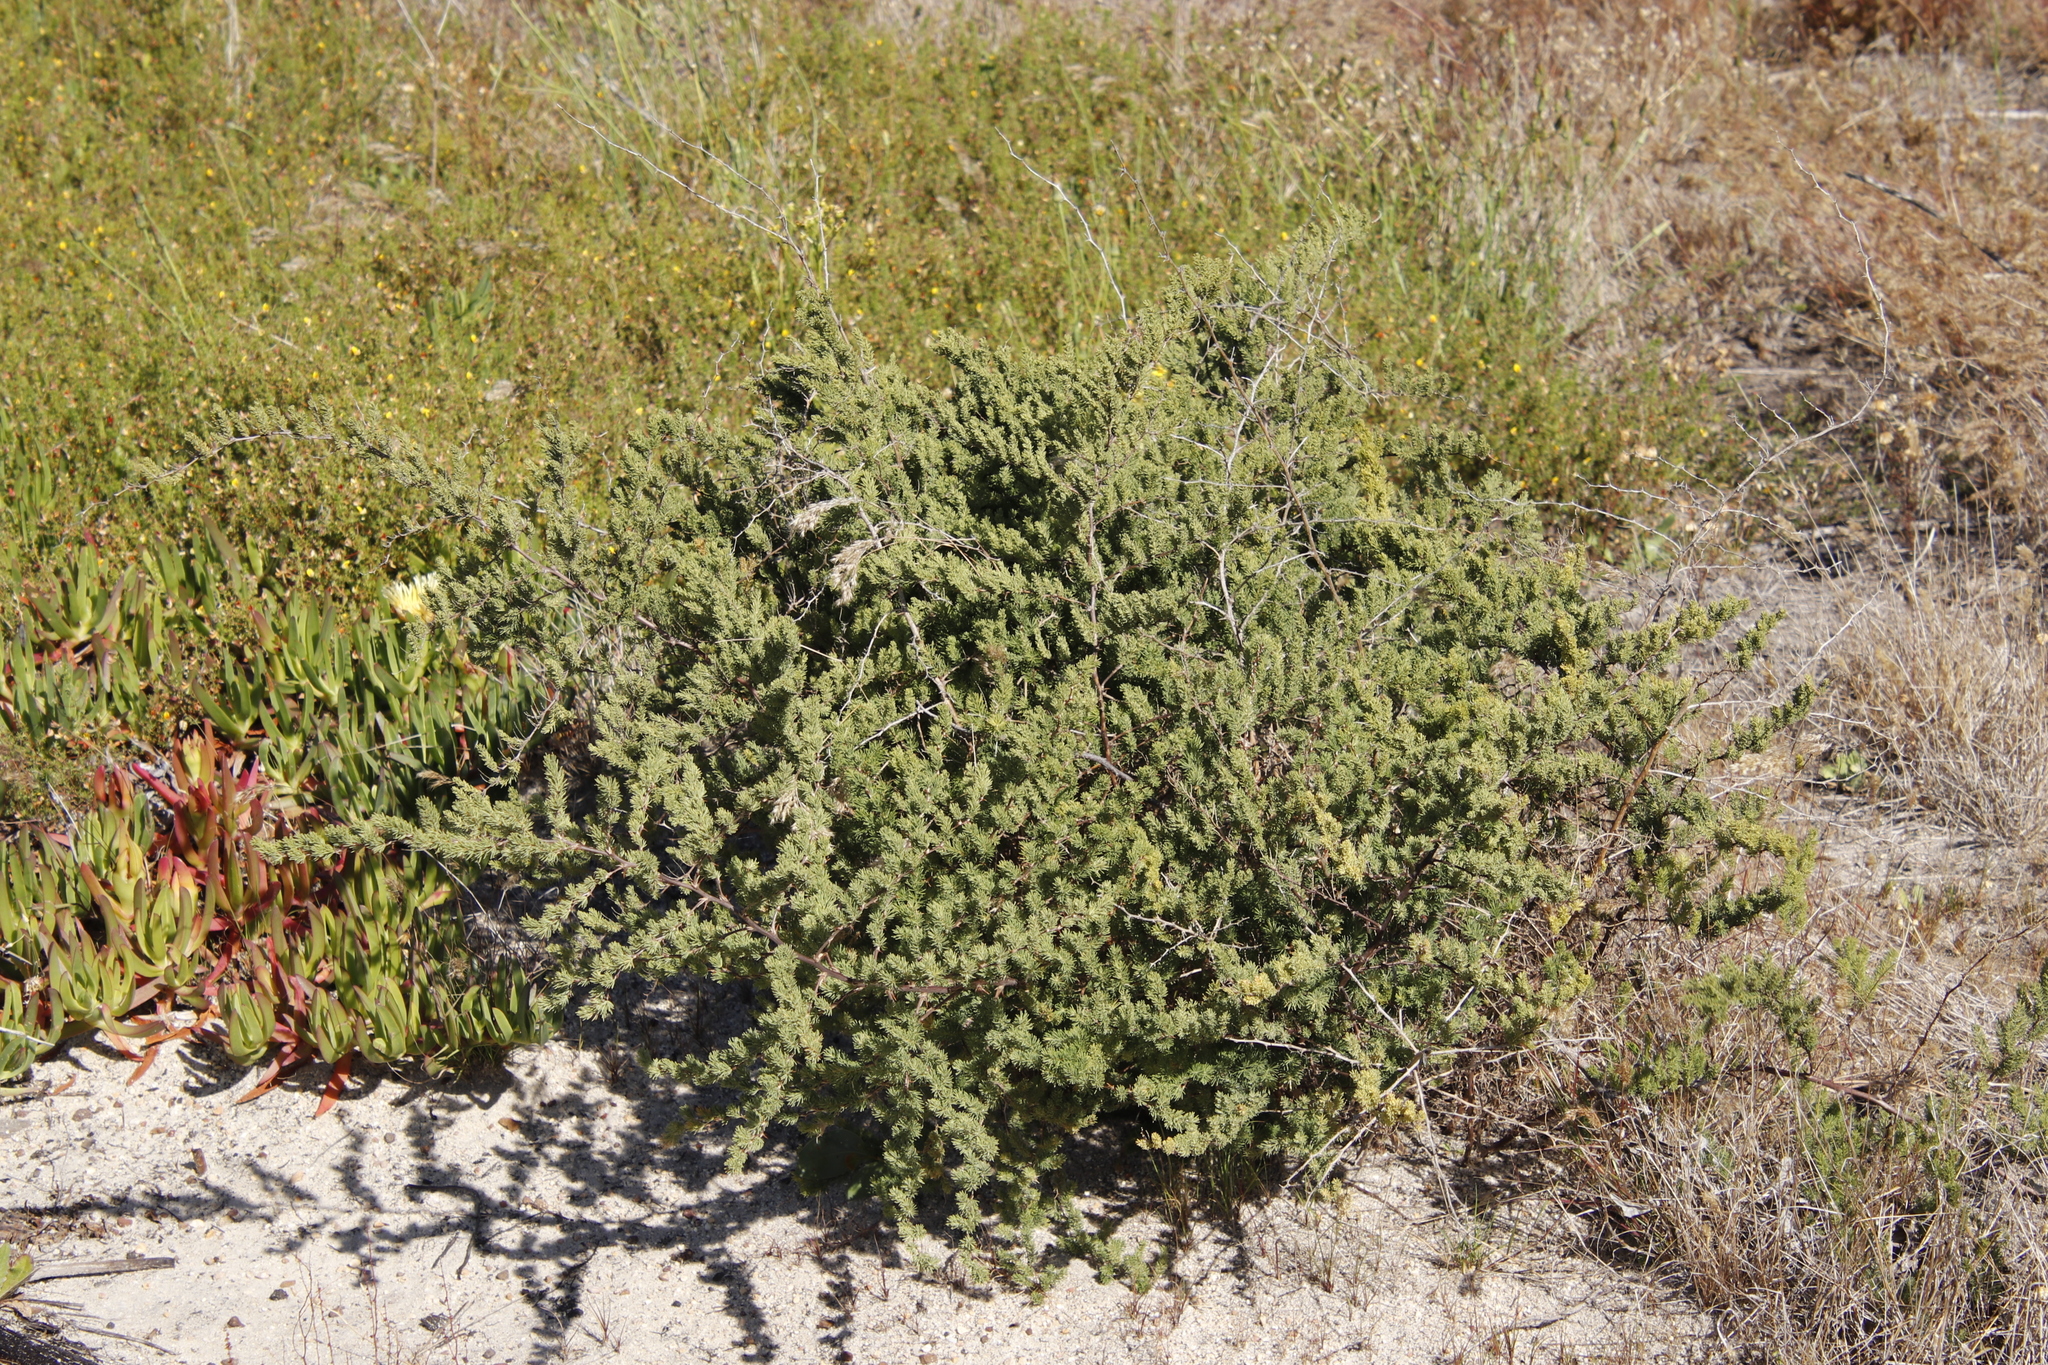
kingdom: Plantae
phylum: Tracheophyta
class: Liliopsida
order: Asparagales
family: Asparagaceae
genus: Asparagus
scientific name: Asparagus rubicundus
